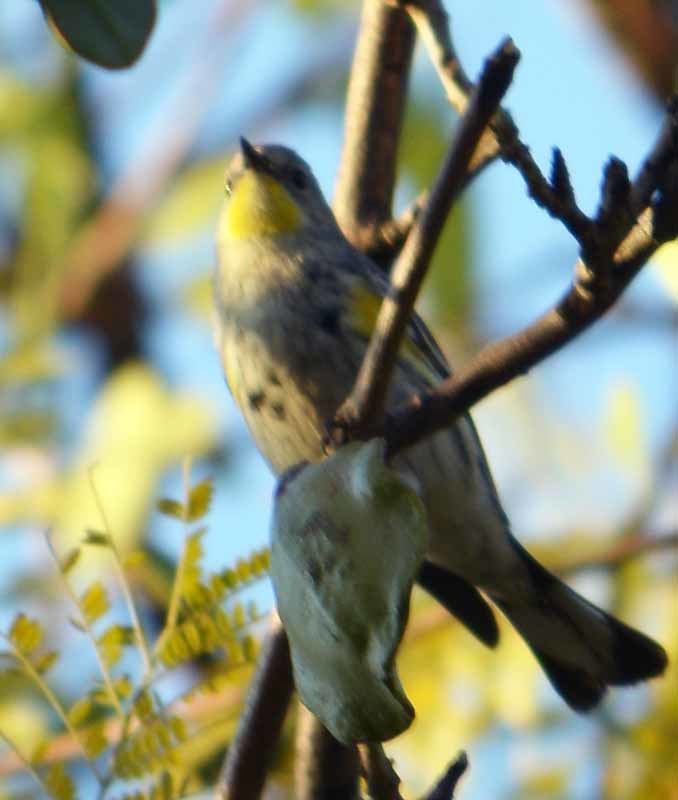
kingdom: Animalia
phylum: Chordata
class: Aves
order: Passeriformes
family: Parulidae
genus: Setophaga
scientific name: Setophaga coronata
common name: Myrtle warbler
